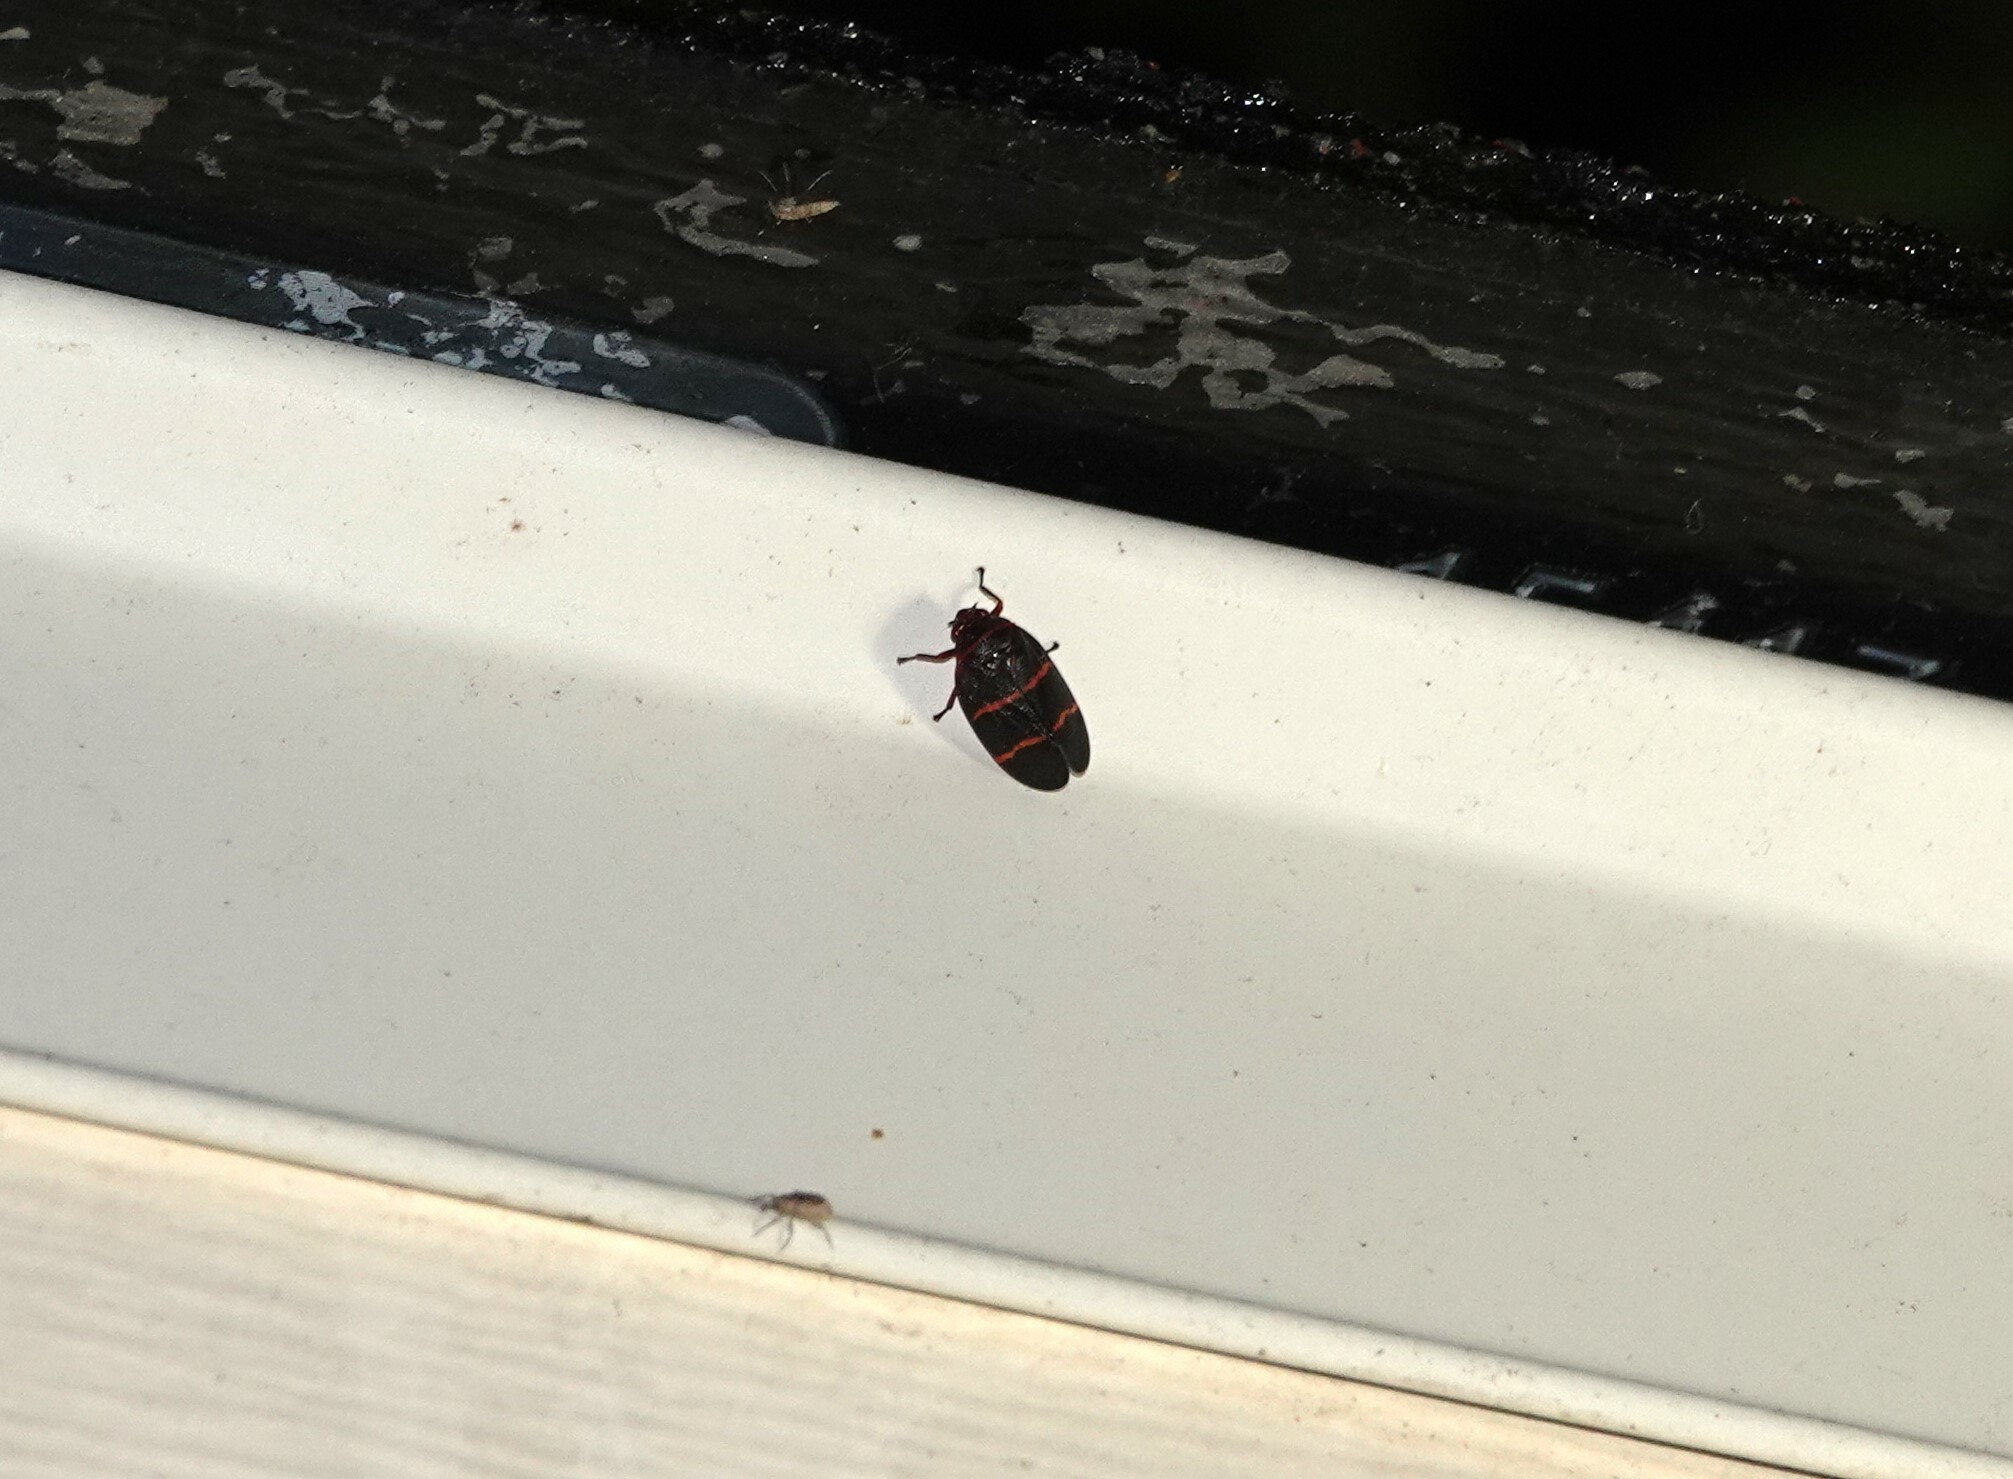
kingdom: Animalia
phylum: Arthropoda
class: Insecta
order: Hemiptera
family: Cercopidae
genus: Prosapia
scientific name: Prosapia bicincta
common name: Twolined spittlebug
